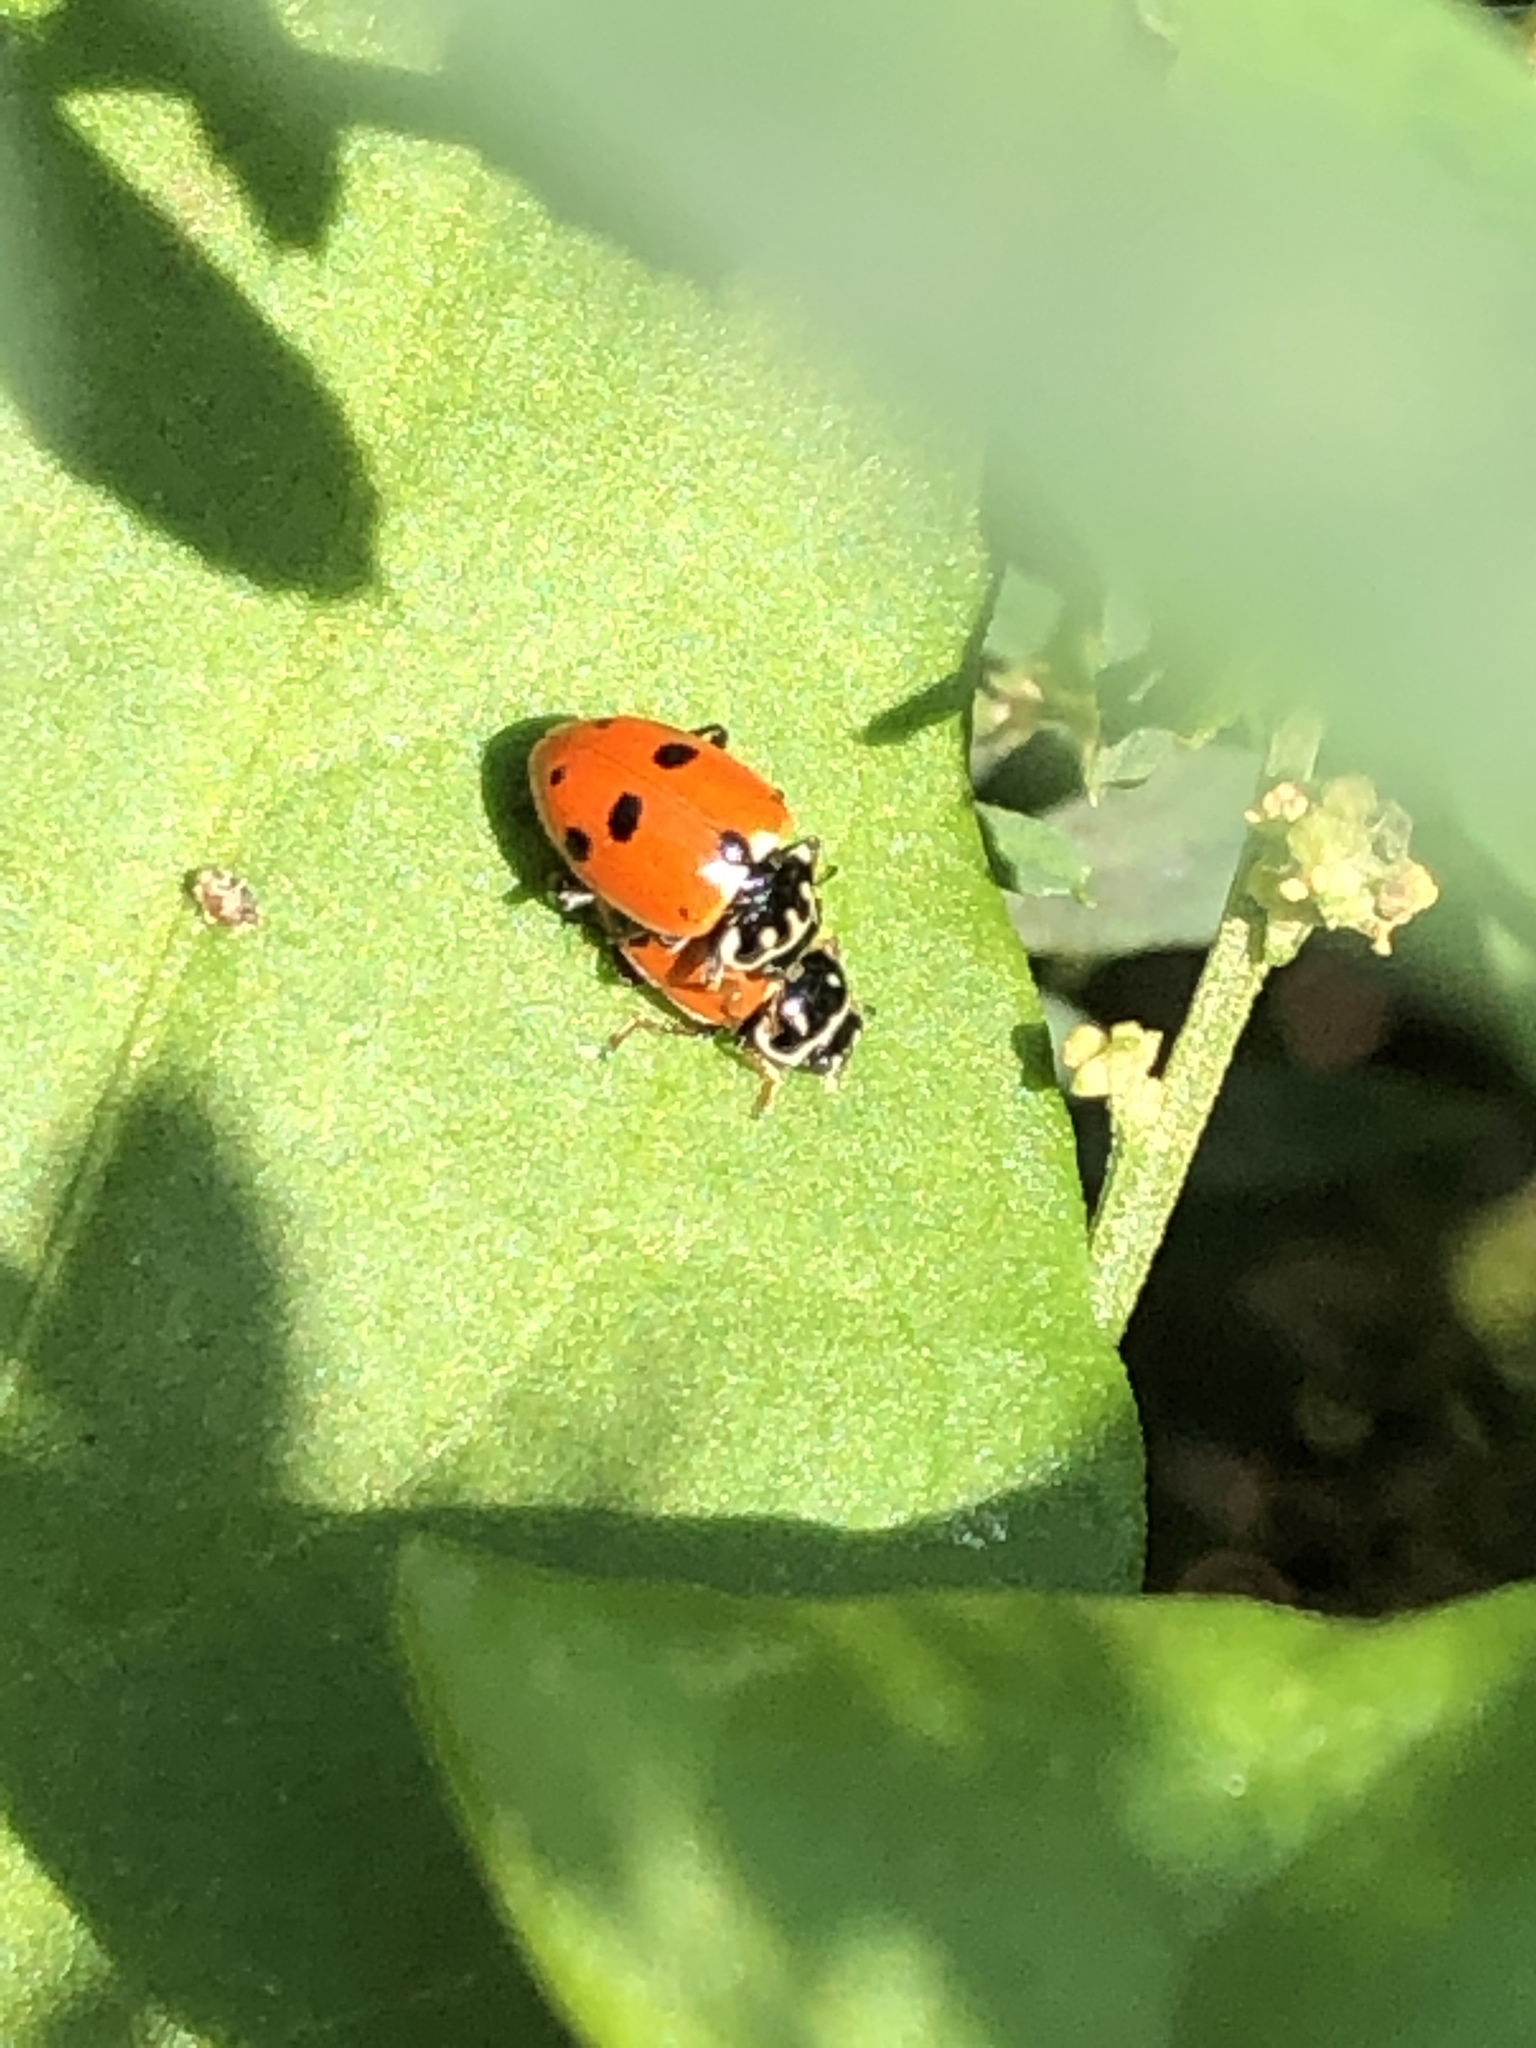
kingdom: Animalia
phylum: Arthropoda
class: Insecta
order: Coleoptera
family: Coccinellidae
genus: Hippodamia
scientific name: Hippodamia variegata
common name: Ladybird beetle
